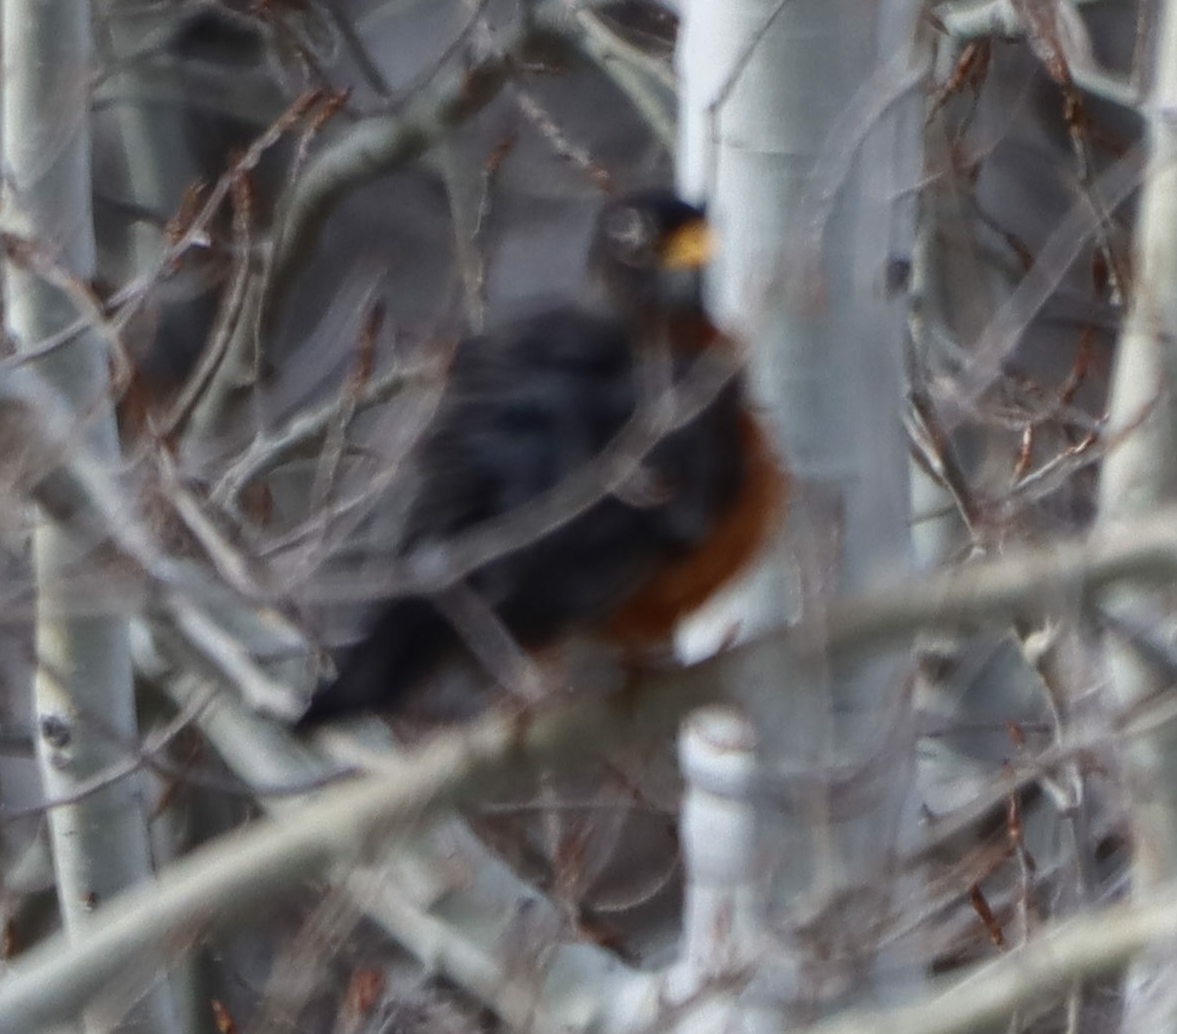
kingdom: Animalia
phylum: Chordata
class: Aves
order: Passeriformes
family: Turdidae
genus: Turdus
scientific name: Turdus migratorius
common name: American robin
